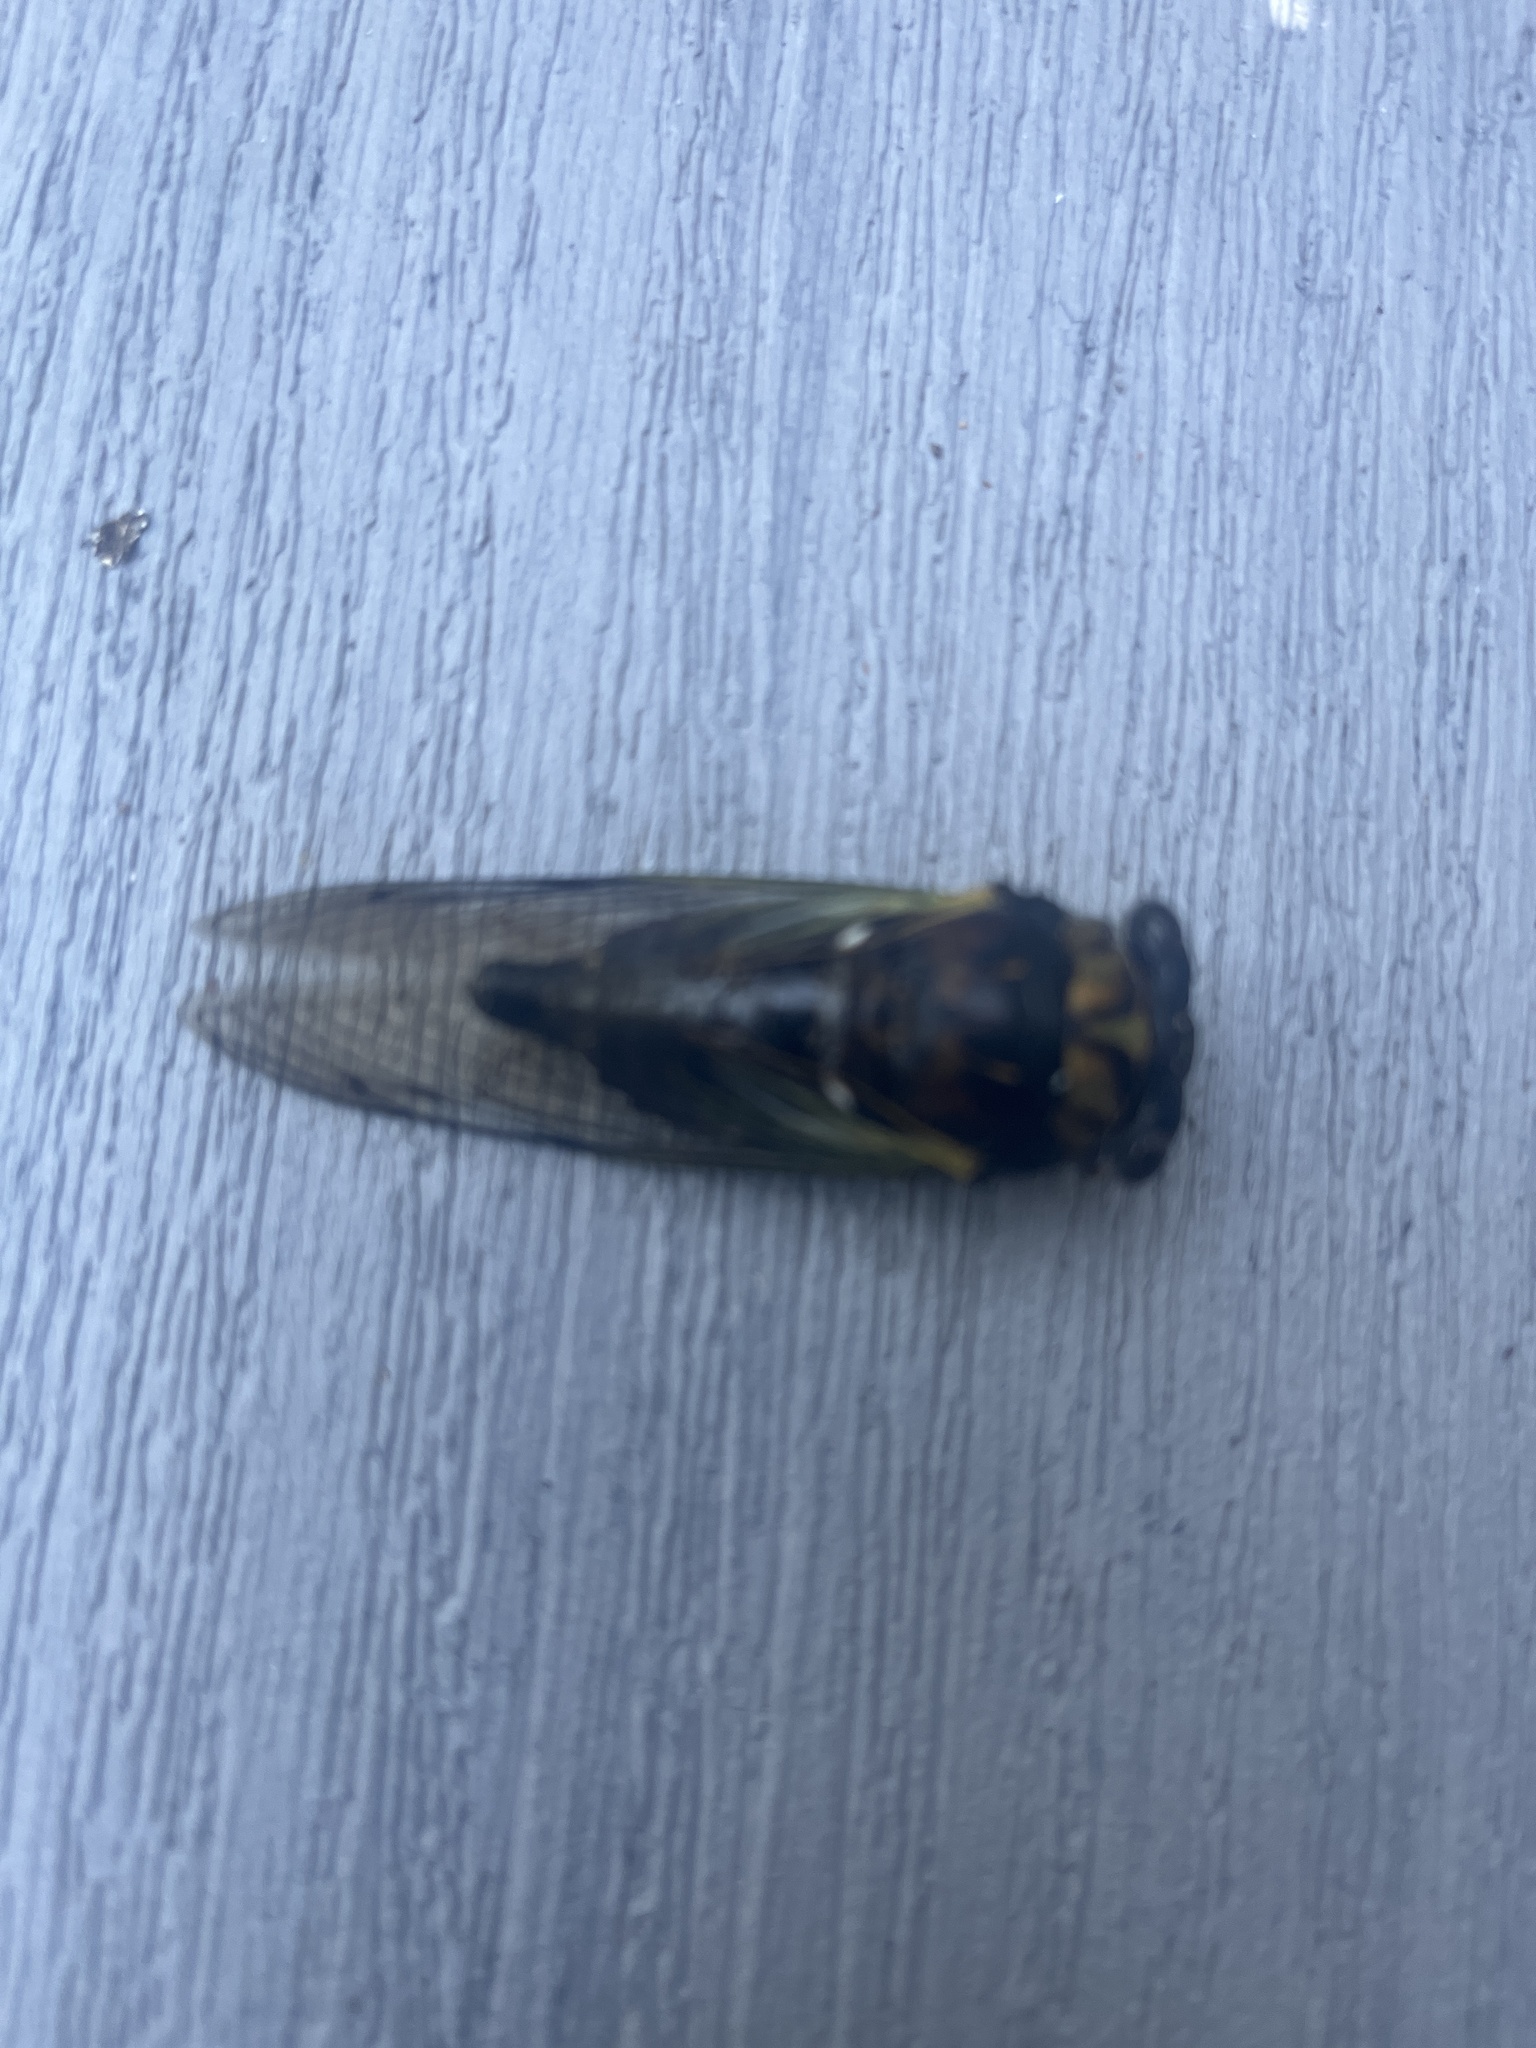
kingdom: Animalia
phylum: Arthropoda
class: Insecta
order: Hemiptera
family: Cicadidae
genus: Neotibicen
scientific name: Neotibicen lyricen
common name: Lyric cicada
